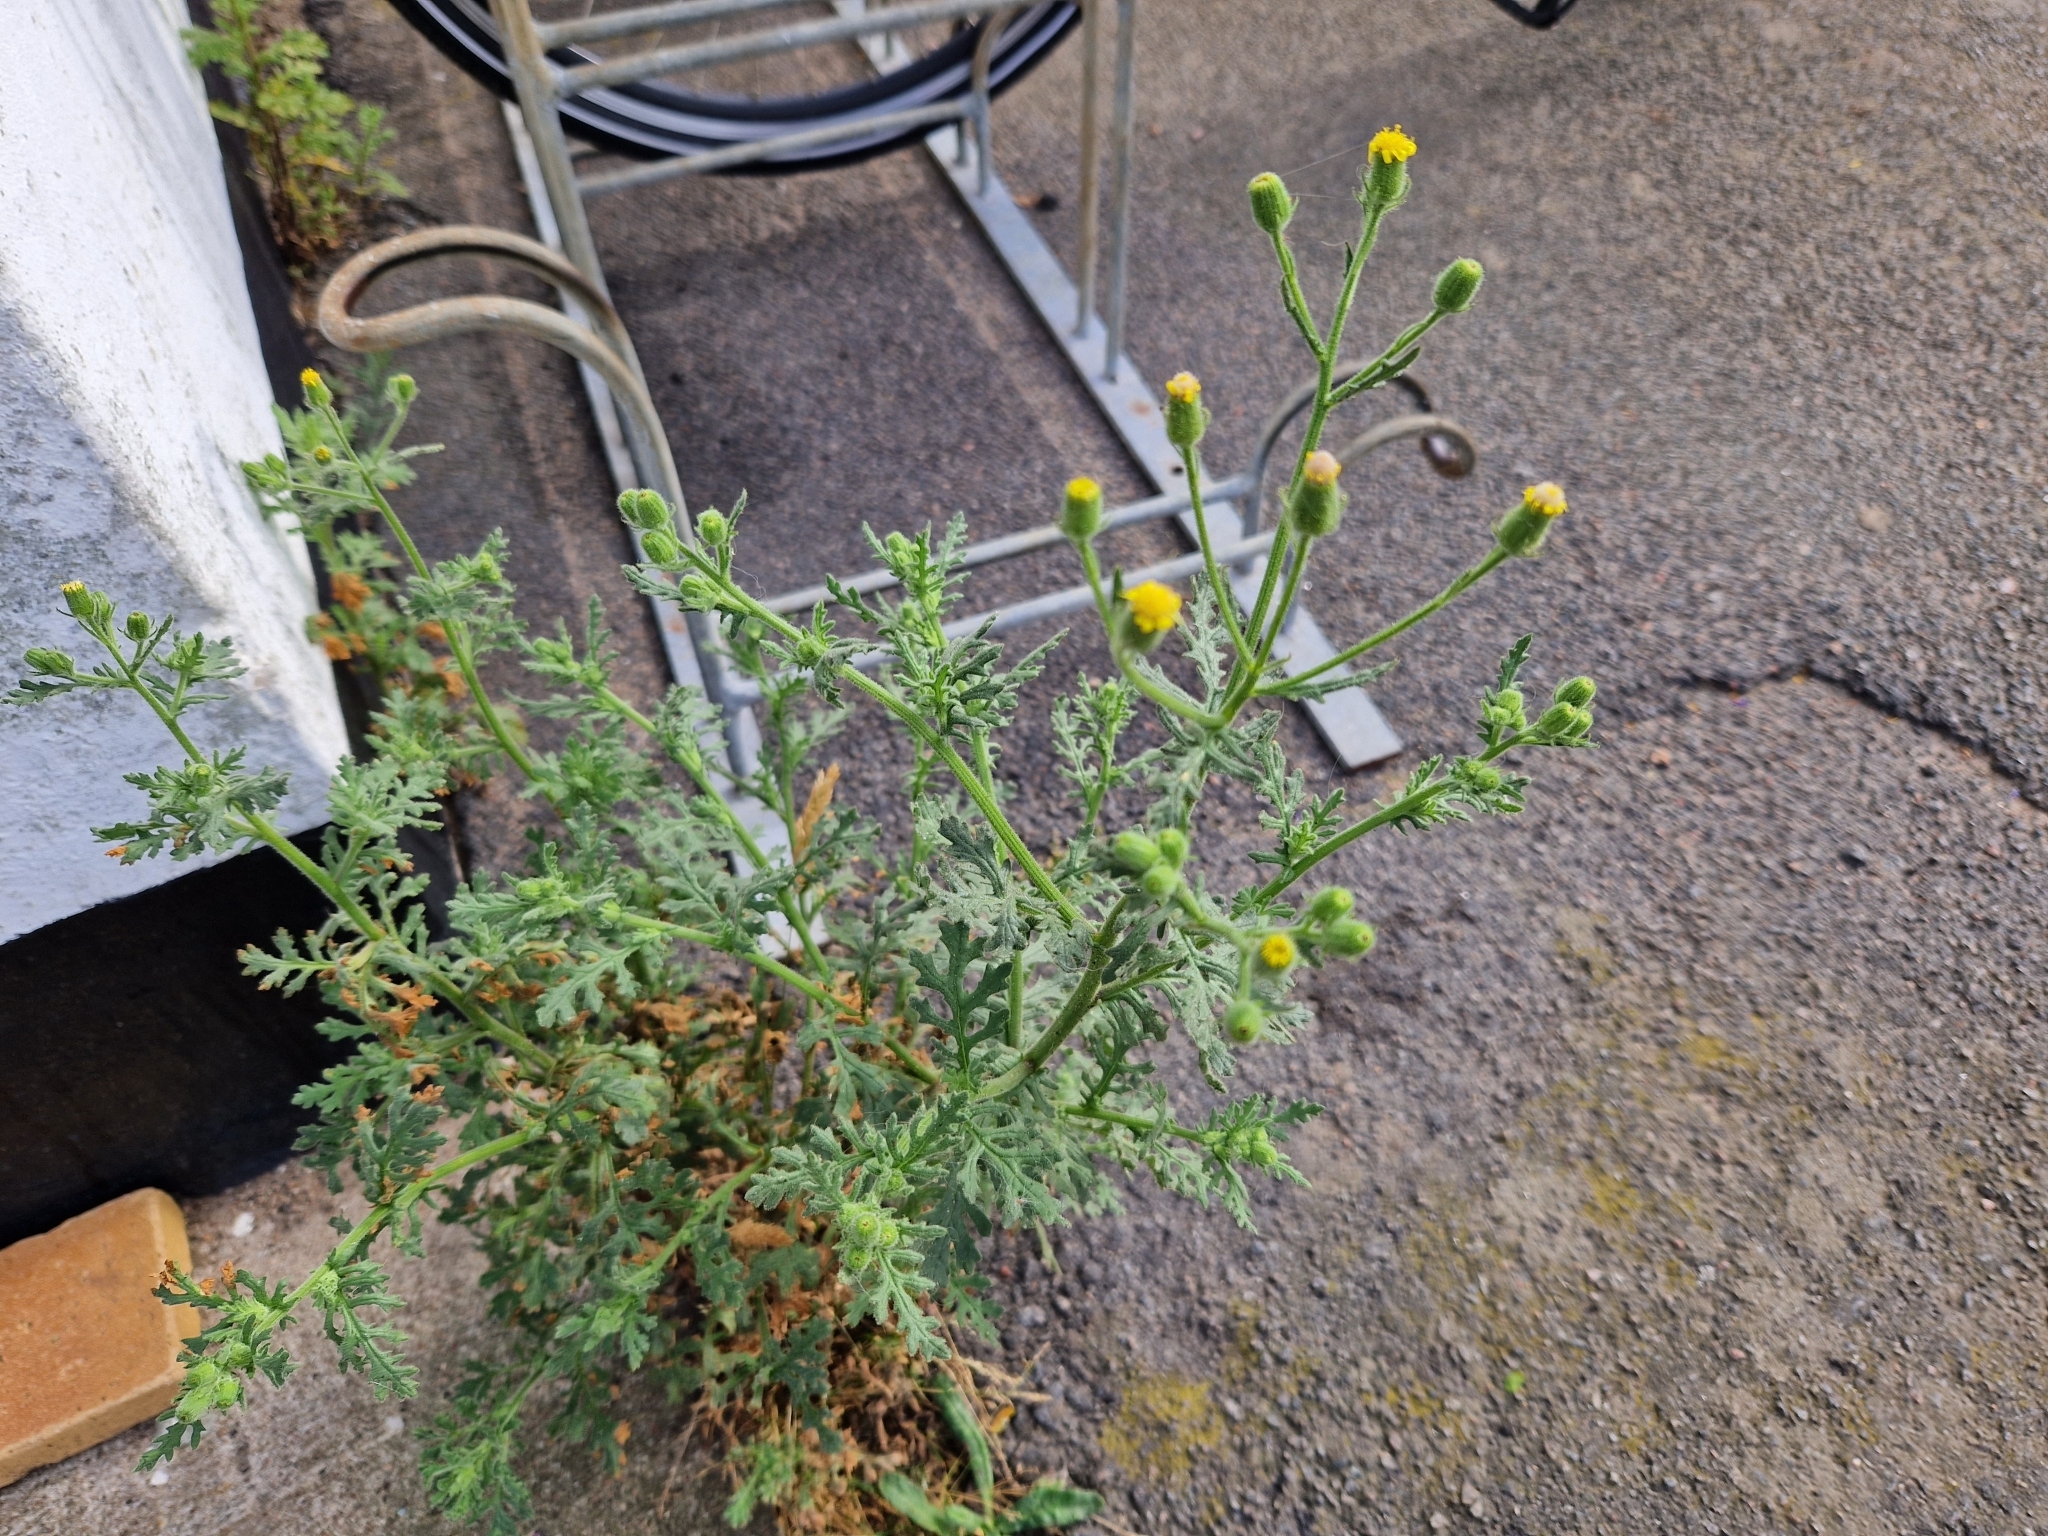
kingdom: Plantae
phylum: Tracheophyta
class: Magnoliopsida
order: Asterales
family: Asteraceae
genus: Senecio
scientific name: Senecio viscosus
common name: Sticky groundsel
